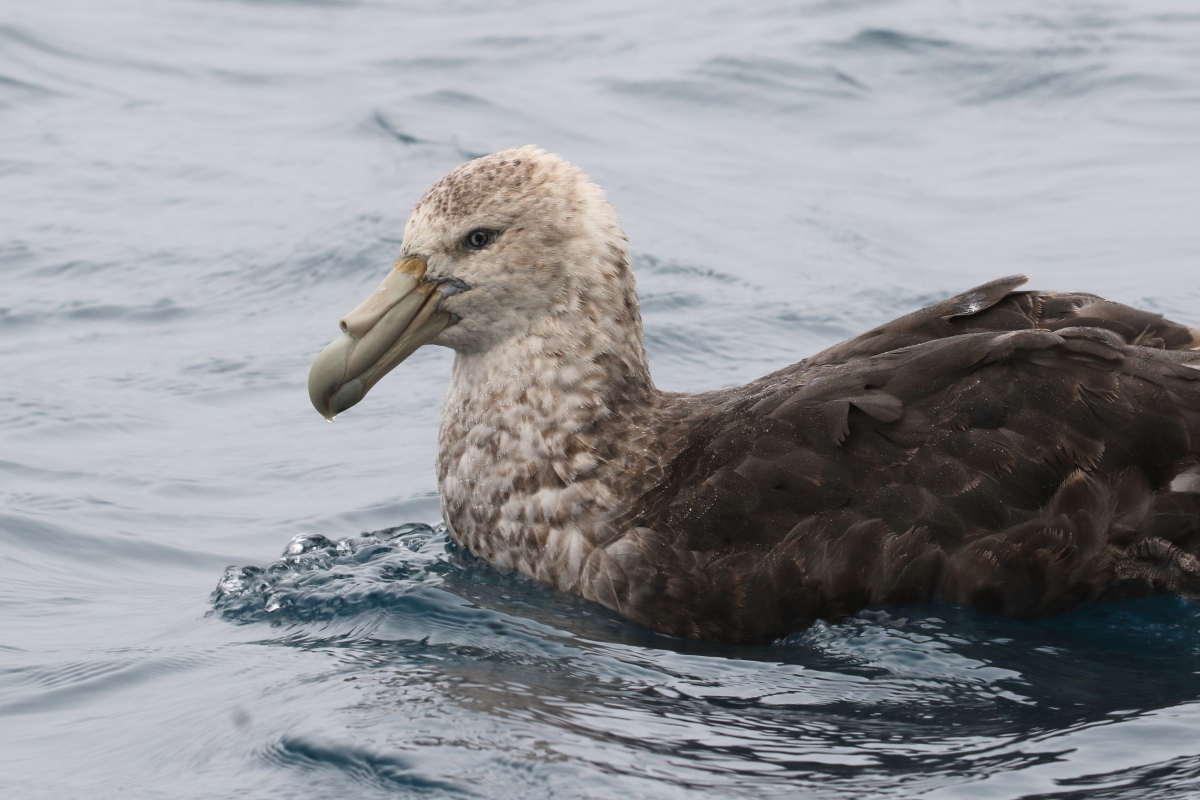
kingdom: Animalia
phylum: Chordata
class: Aves
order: Procellariiformes
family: Procellariidae
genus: Macronectes
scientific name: Macronectes giganteus
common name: Southern giant petrel
